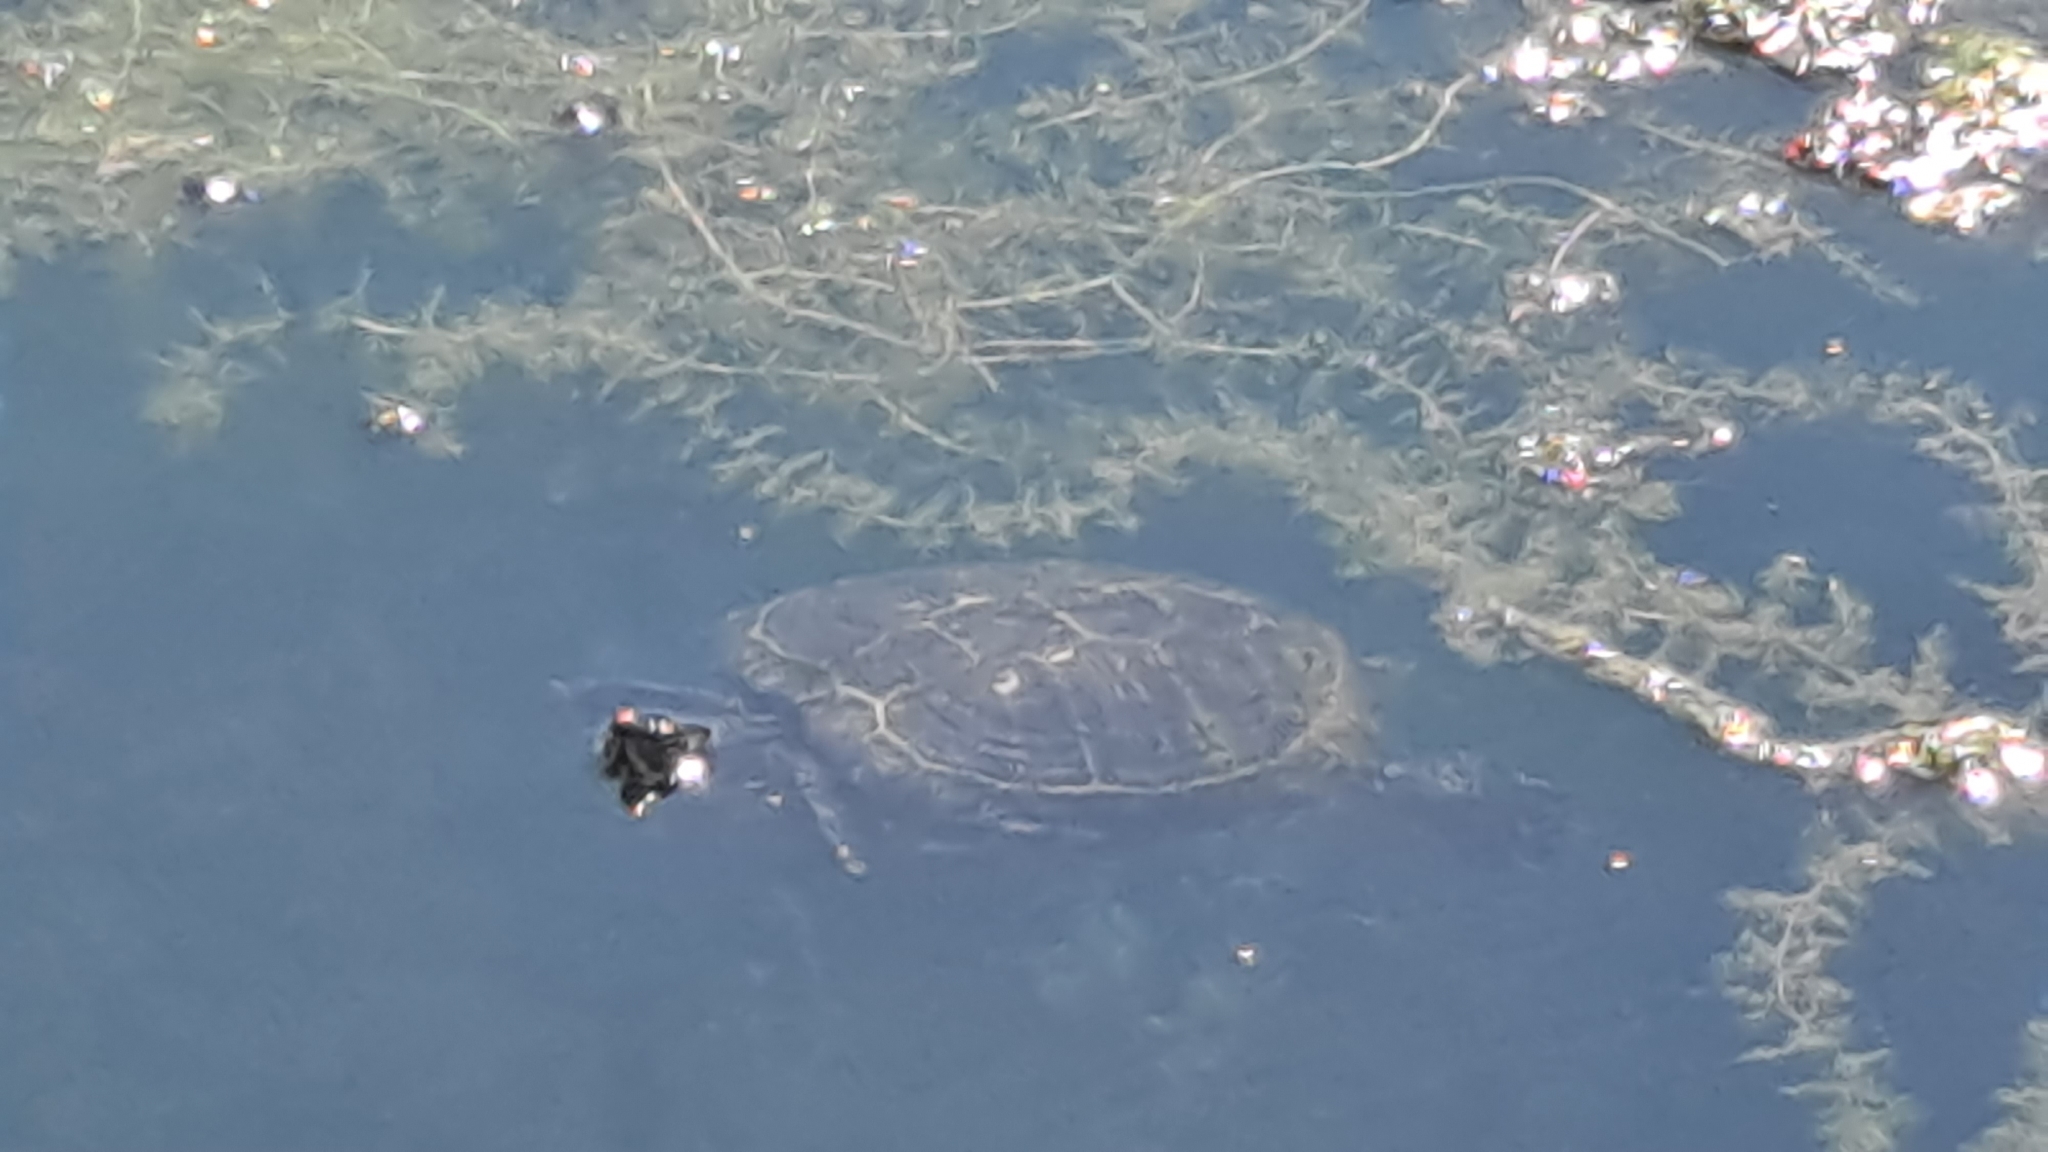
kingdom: Animalia
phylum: Chordata
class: Testudines
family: Emydidae
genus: Trachemys
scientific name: Trachemys scripta
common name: Slider
